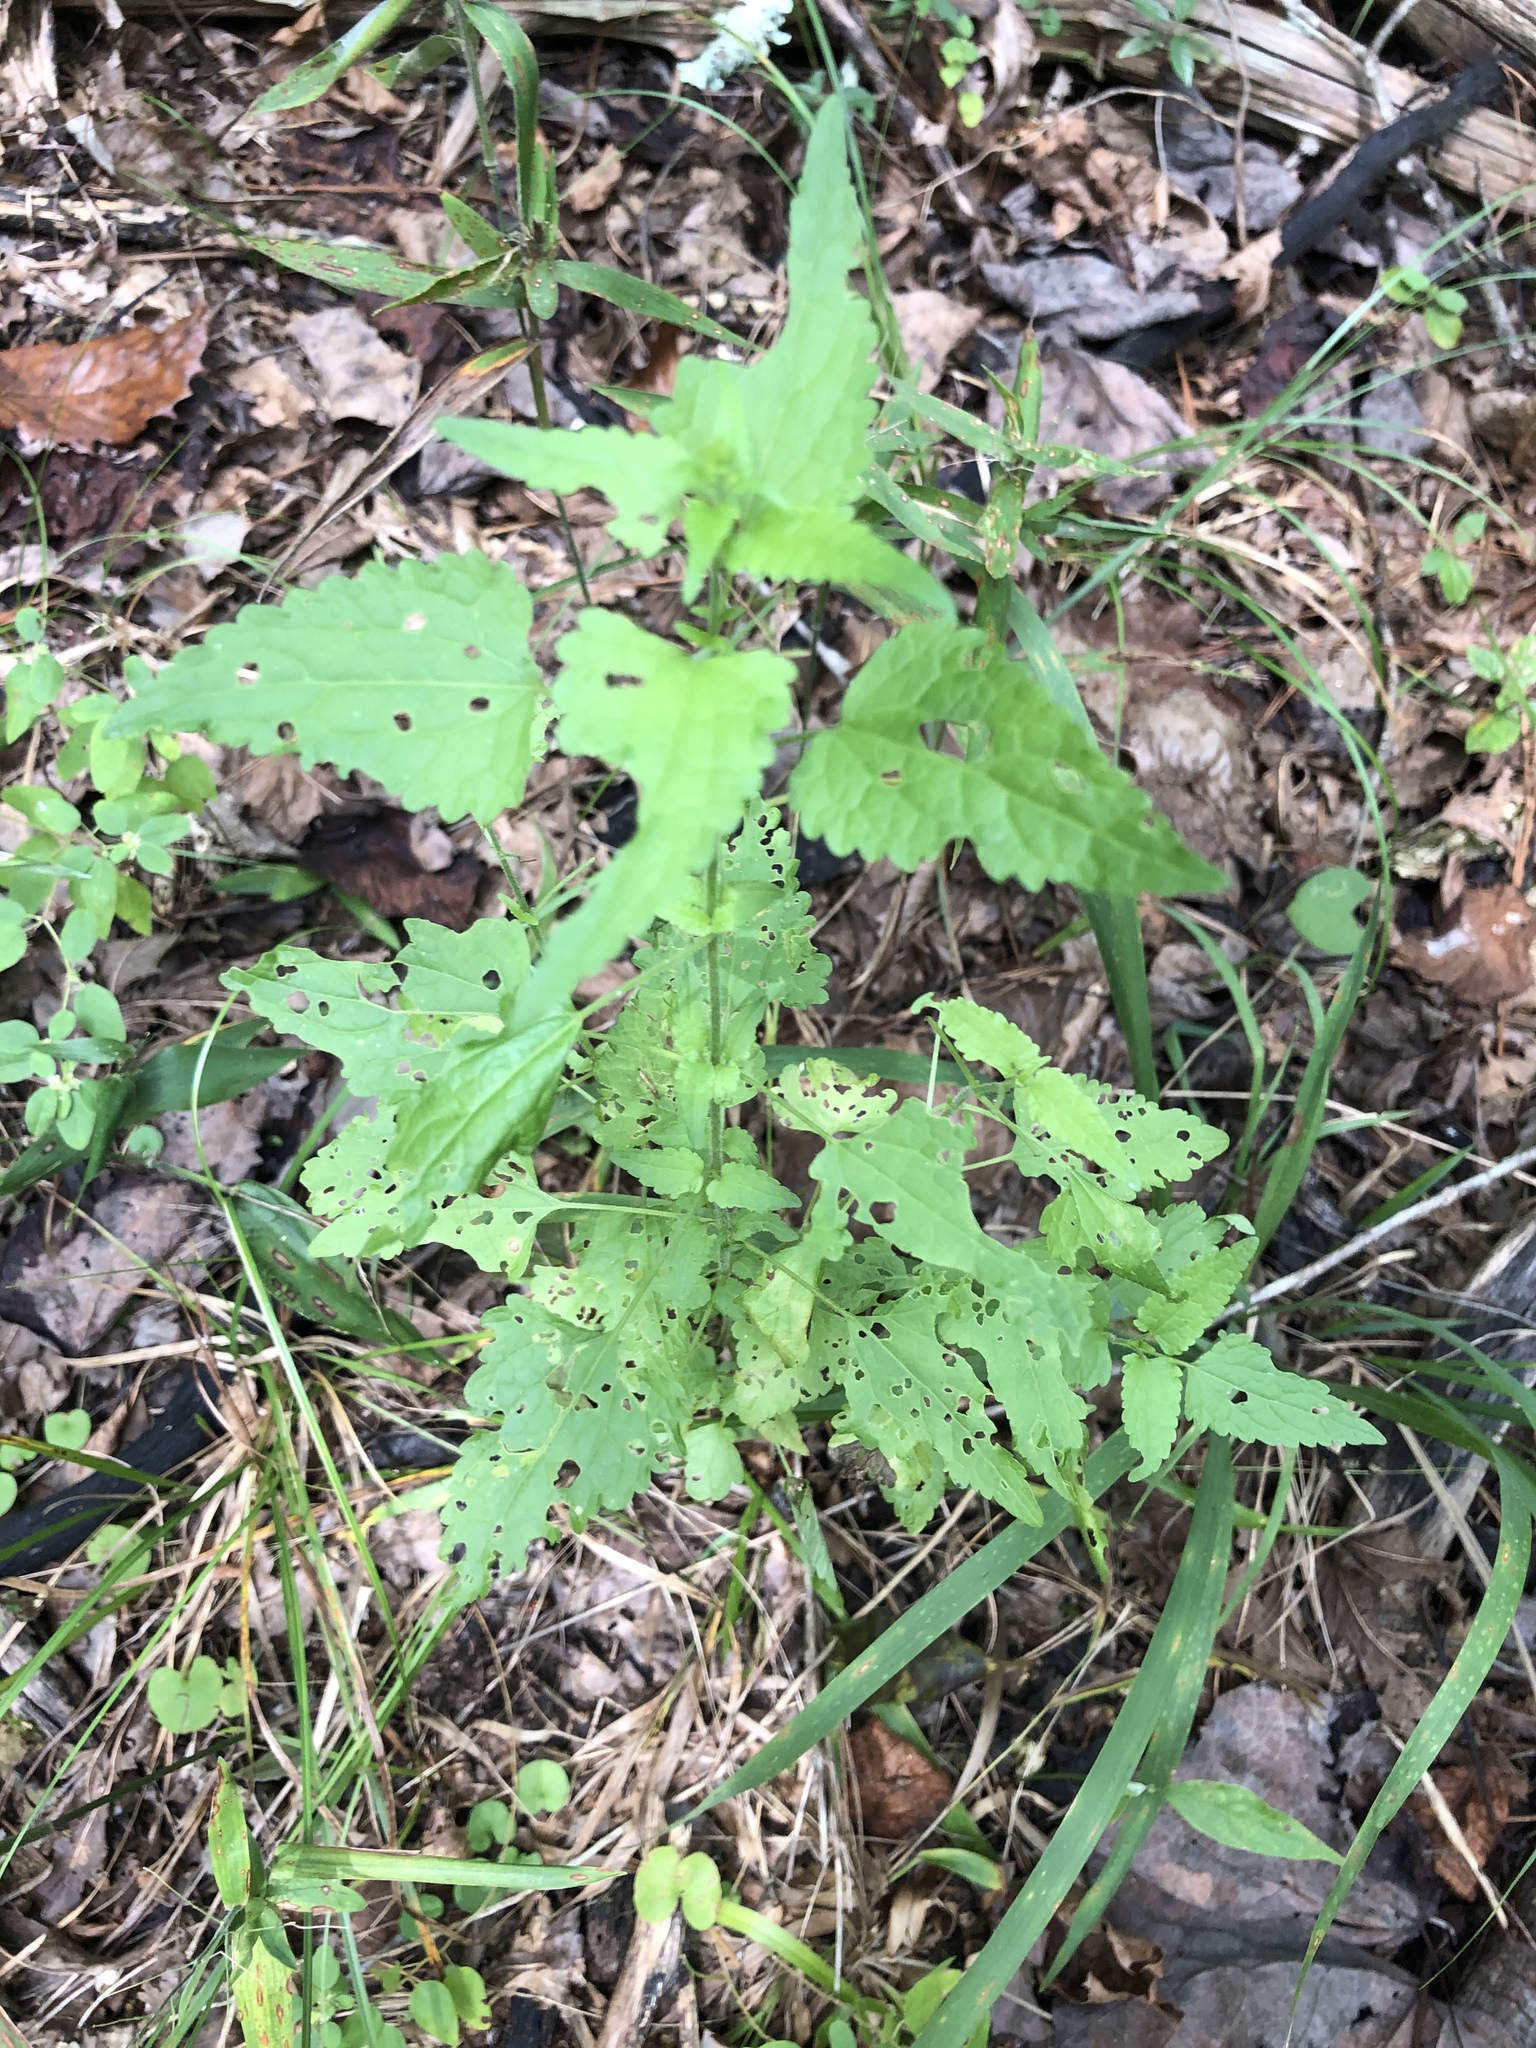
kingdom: Plantae
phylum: Tracheophyta
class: Magnoliopsida
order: Asterales
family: Asteraceae
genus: Fleischmannia
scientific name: Fleischmannia incarnata
